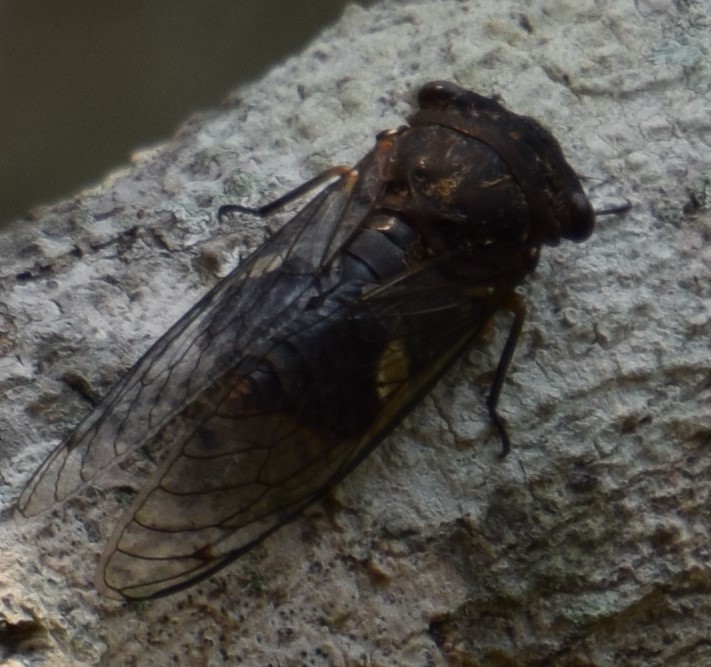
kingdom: Animalia
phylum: Arthropoda
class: Insecta
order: Hemiptera
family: Cicadidae
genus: Psaltoda
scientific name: Psaltoda plaga
